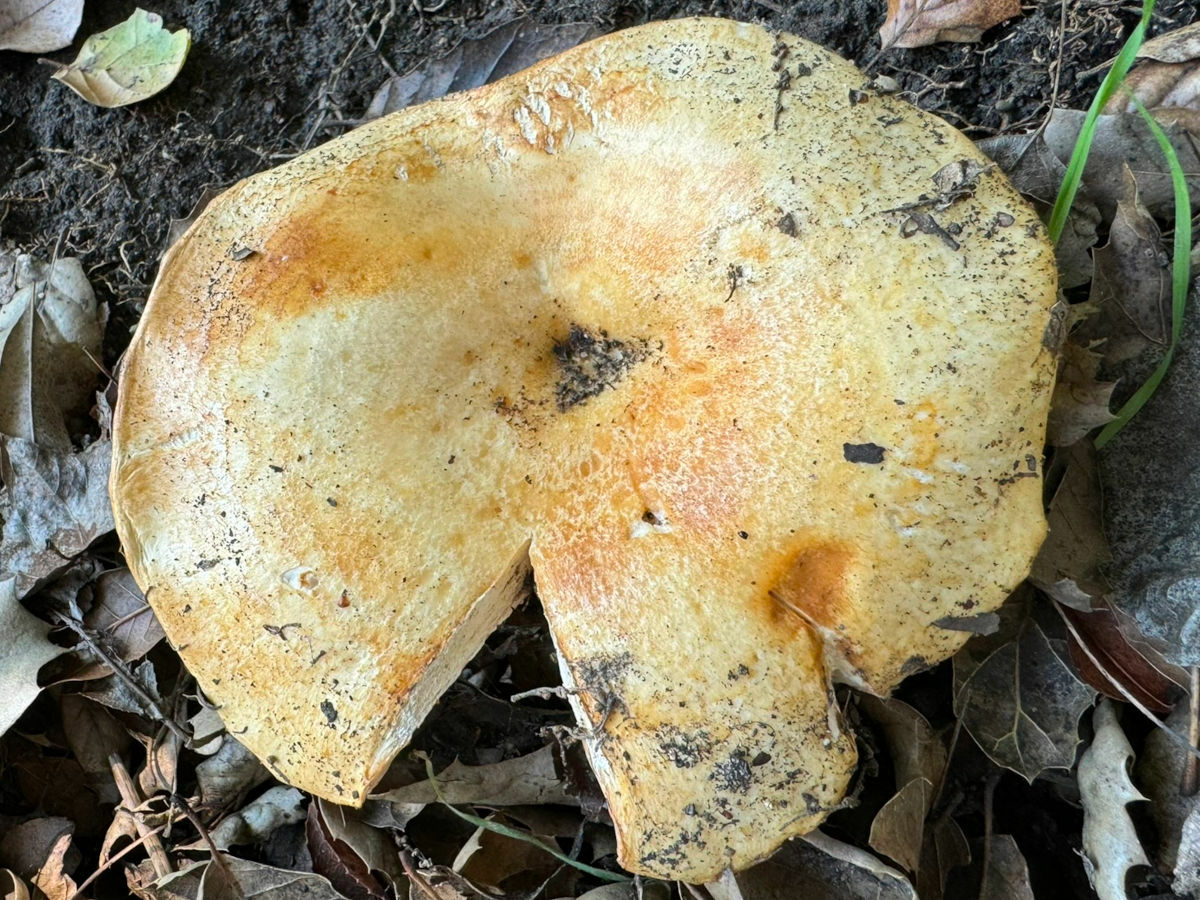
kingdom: Fungi
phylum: Basidiomycota
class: Agaricomycetes
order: Russulales
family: Russulaceae
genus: Lactarius
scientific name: Lactarius alnicola
